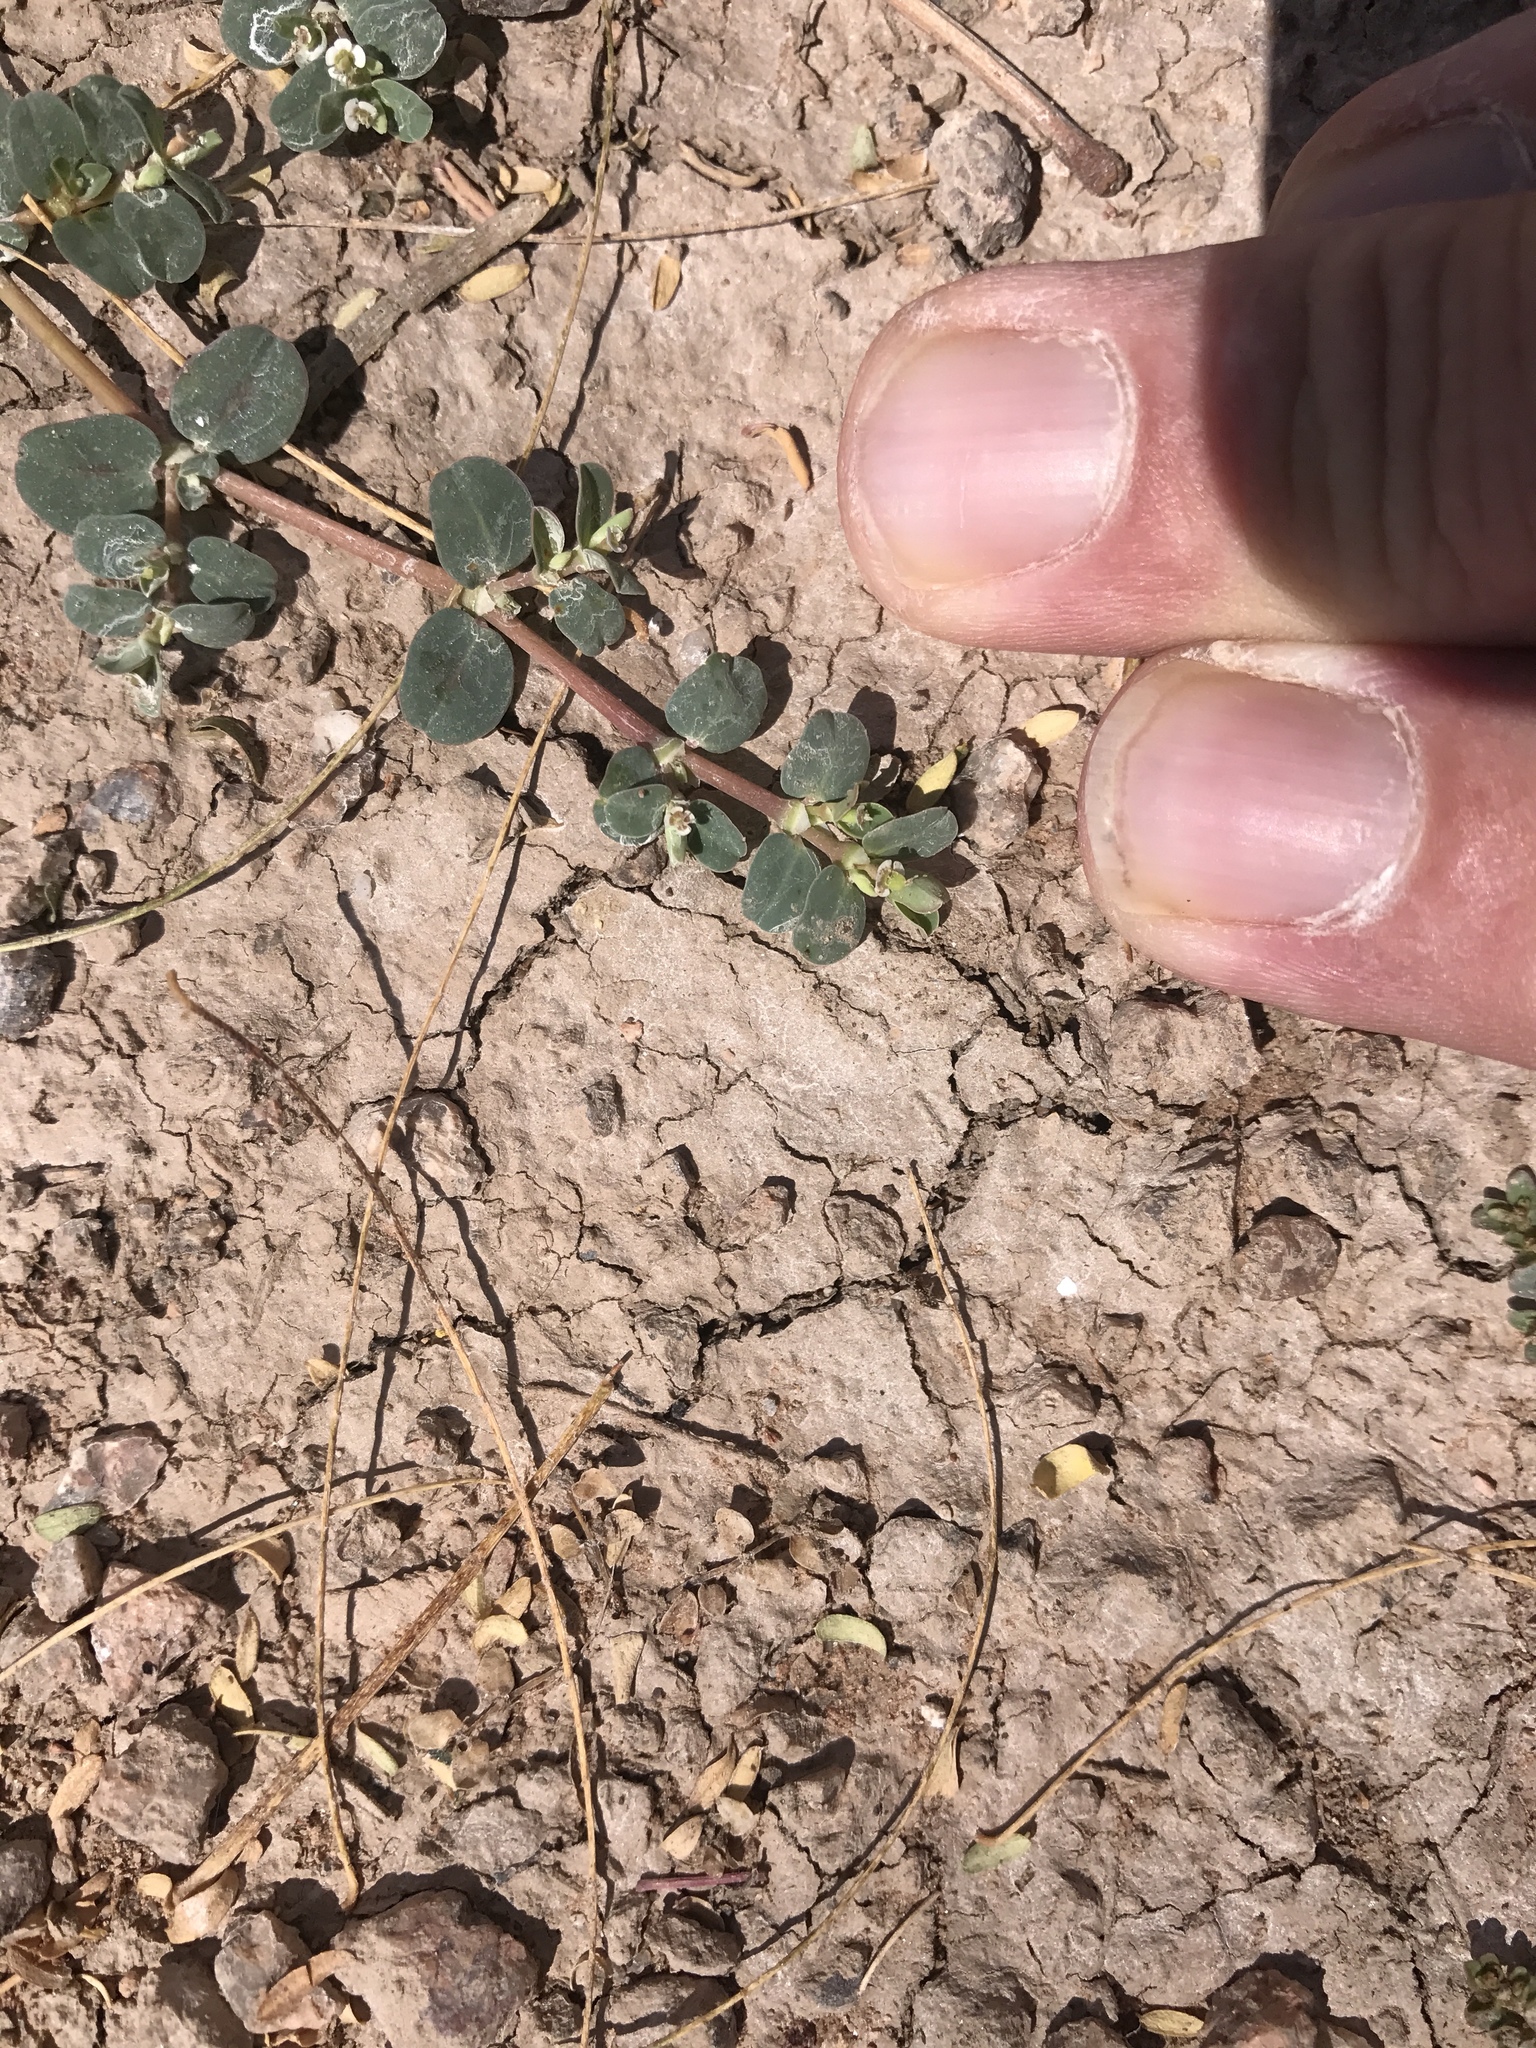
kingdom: Plantae
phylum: Tracheophyta
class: Magnoliopsida
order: Malpighiales
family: Euphorbiaceae
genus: Euphorbia
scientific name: Euphorbia albomarginata
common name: Whitemargin sandmat
